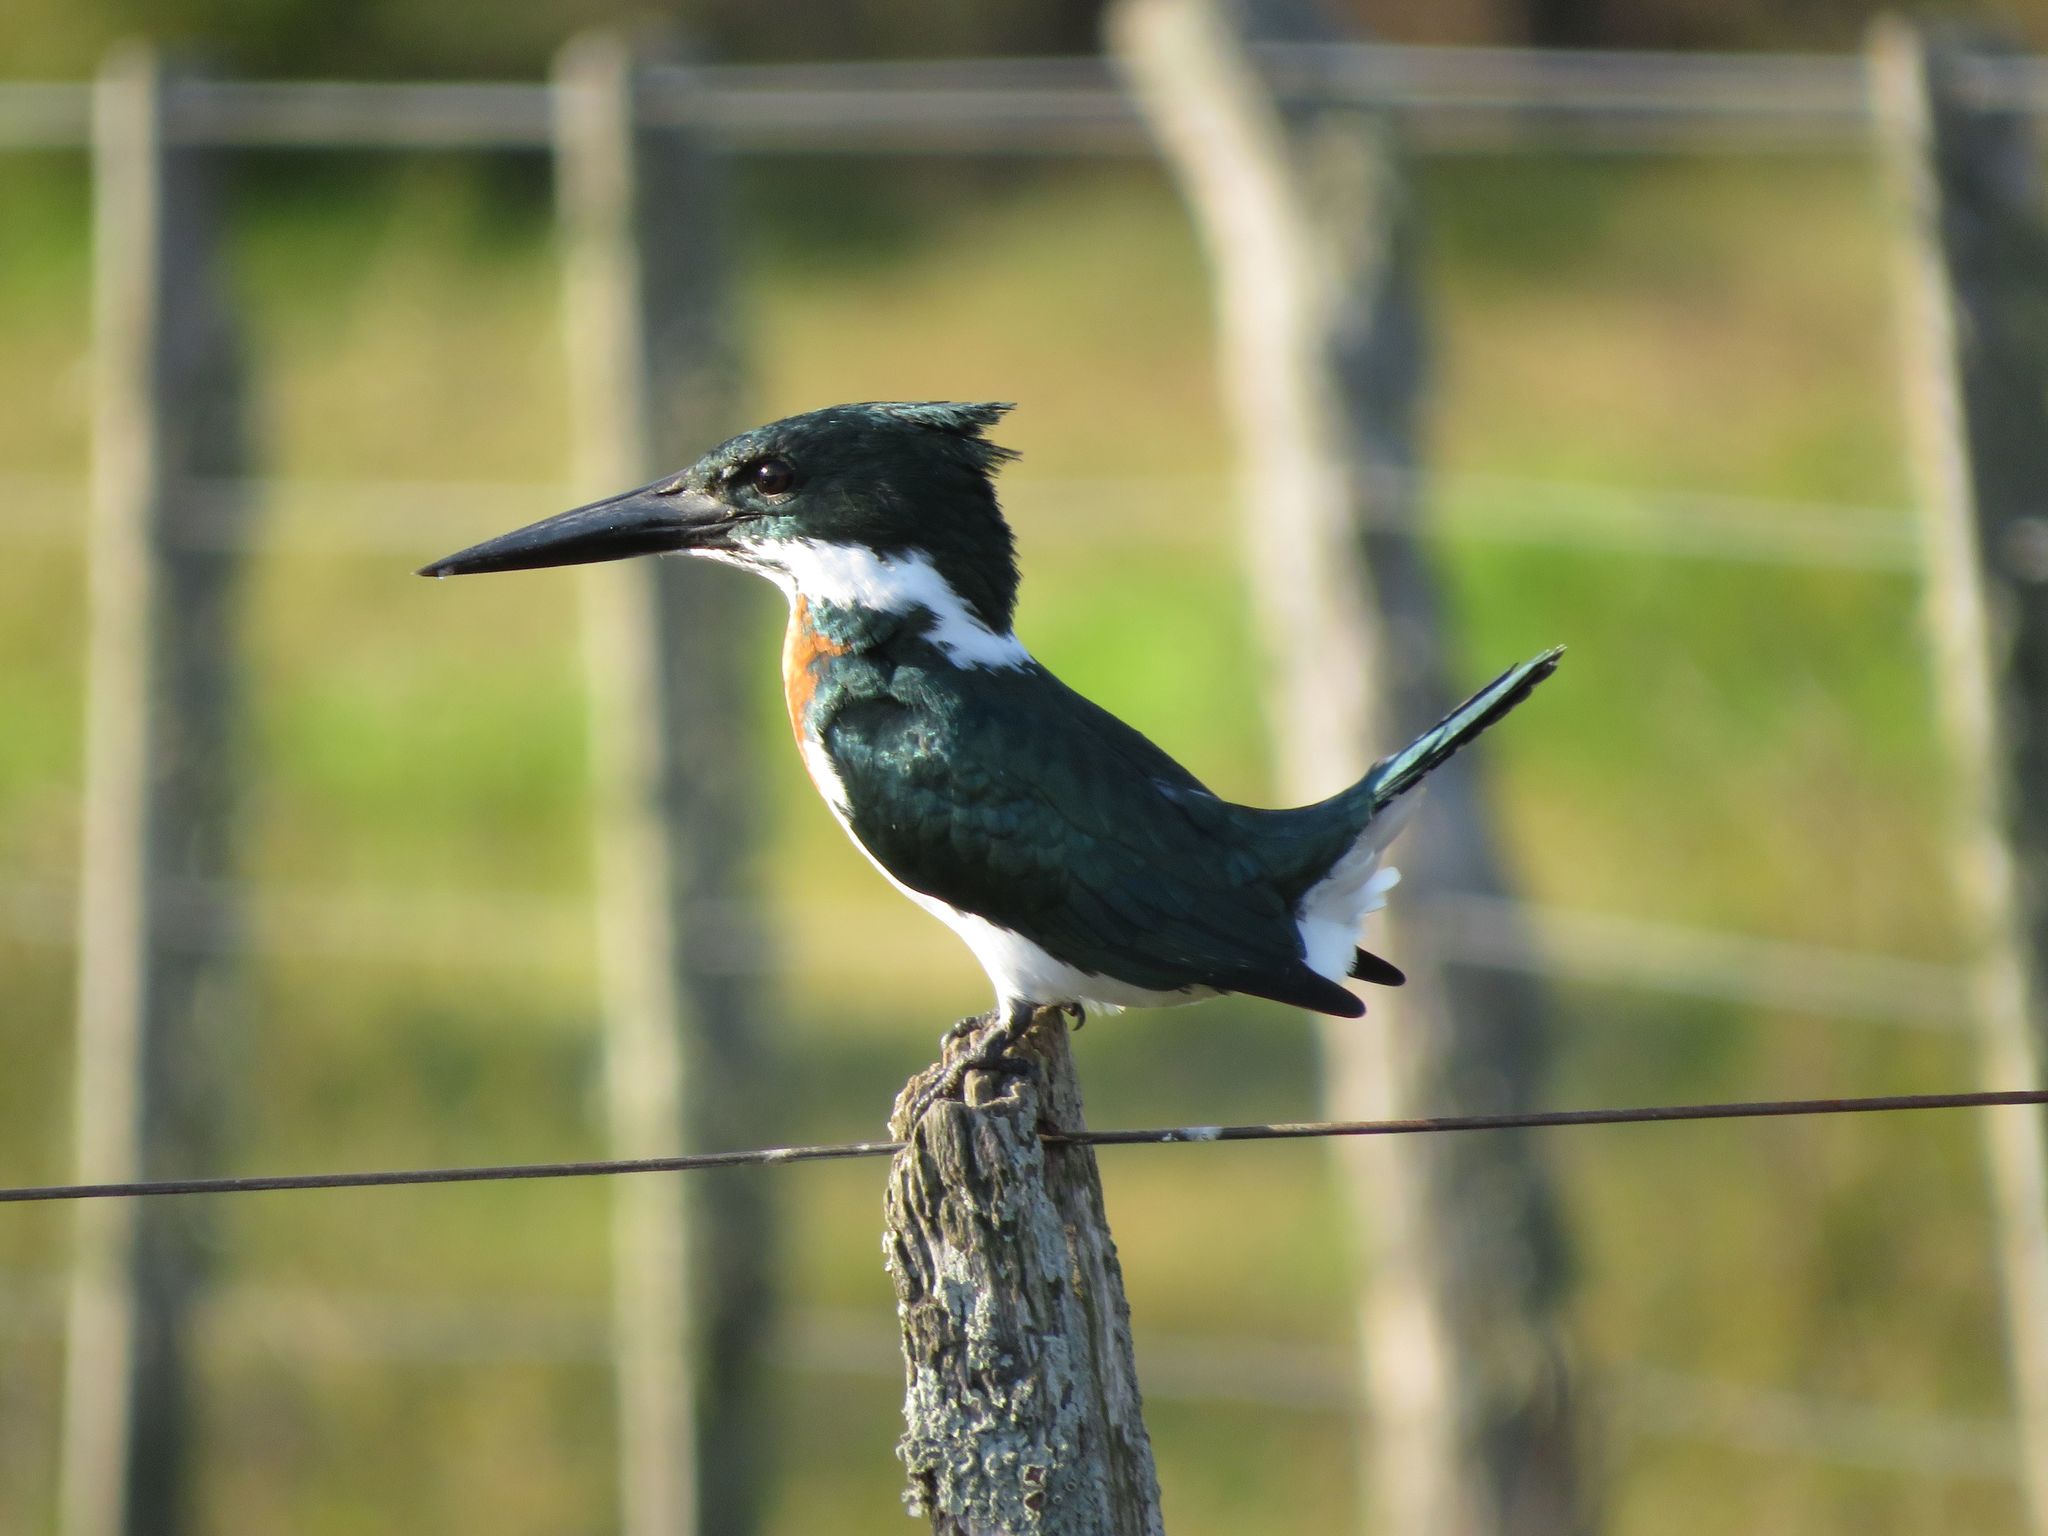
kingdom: Animalia
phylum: Chordata
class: Aves
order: Coraciiformes
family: Alcedinidae
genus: Chloroceryle
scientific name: Chloroceryle amazona
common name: Amazon kingfisher
